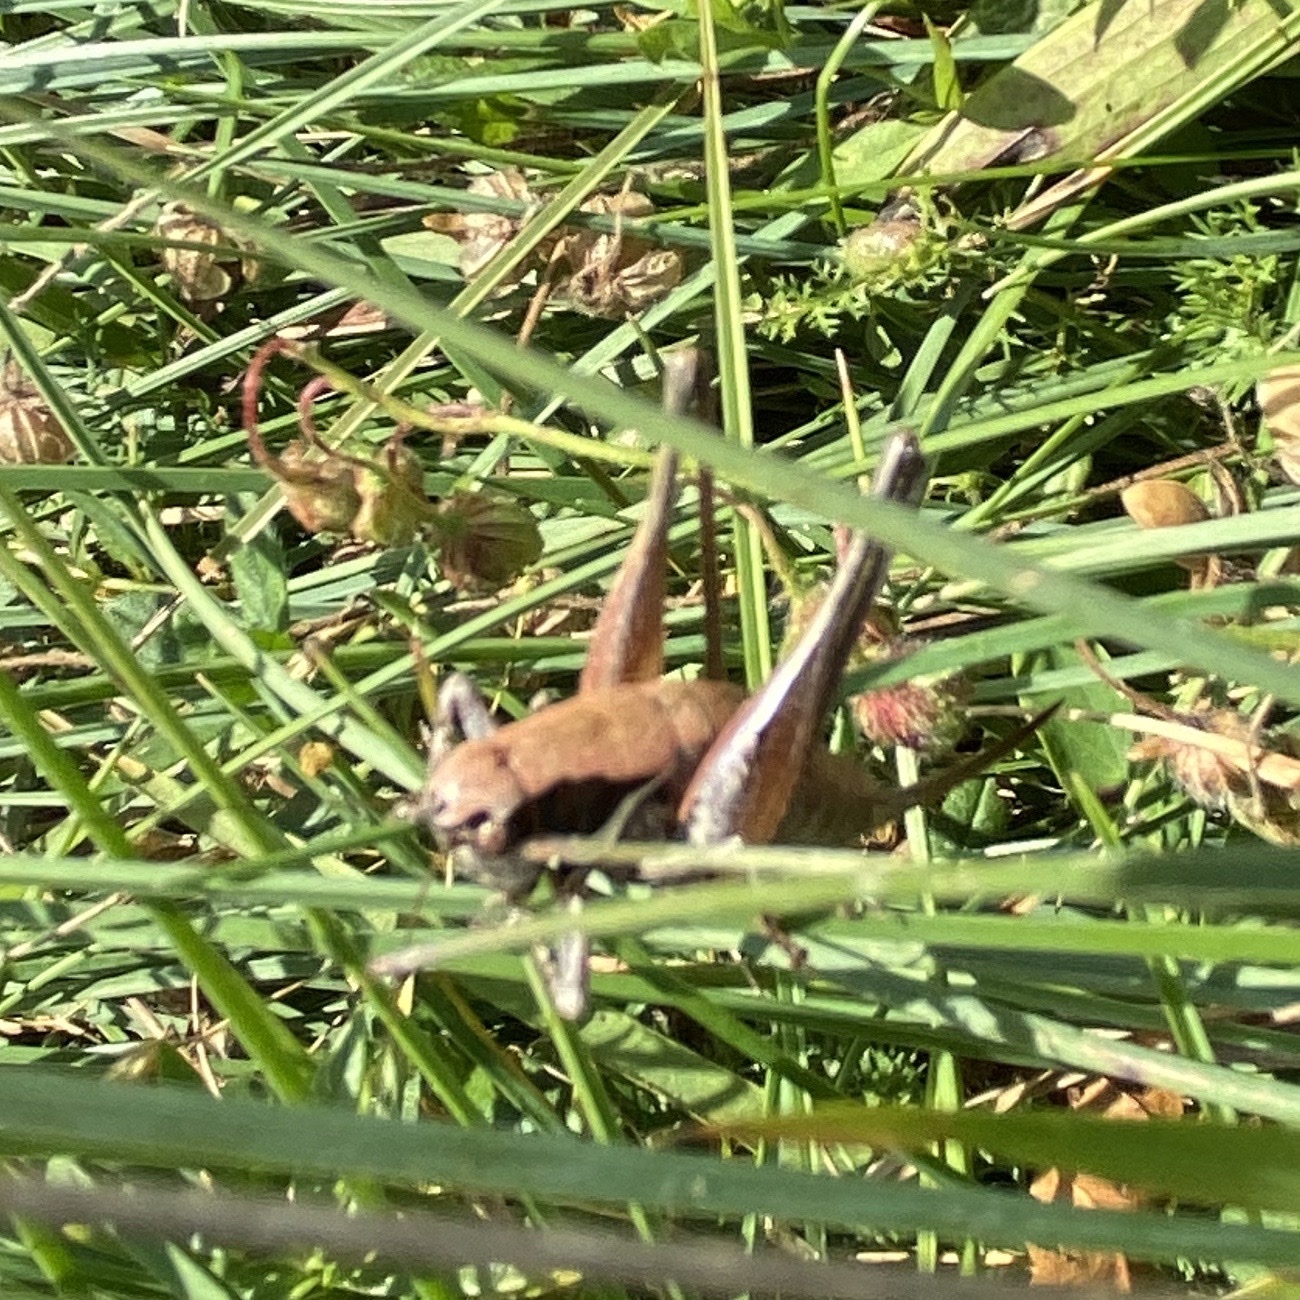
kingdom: Animalia
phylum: Arthropoda
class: Insecta
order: Orthoptera
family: Tettigoniidae
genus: Pholidoptera
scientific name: Pholidoptera fallax
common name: Fischer's bush-cricket
